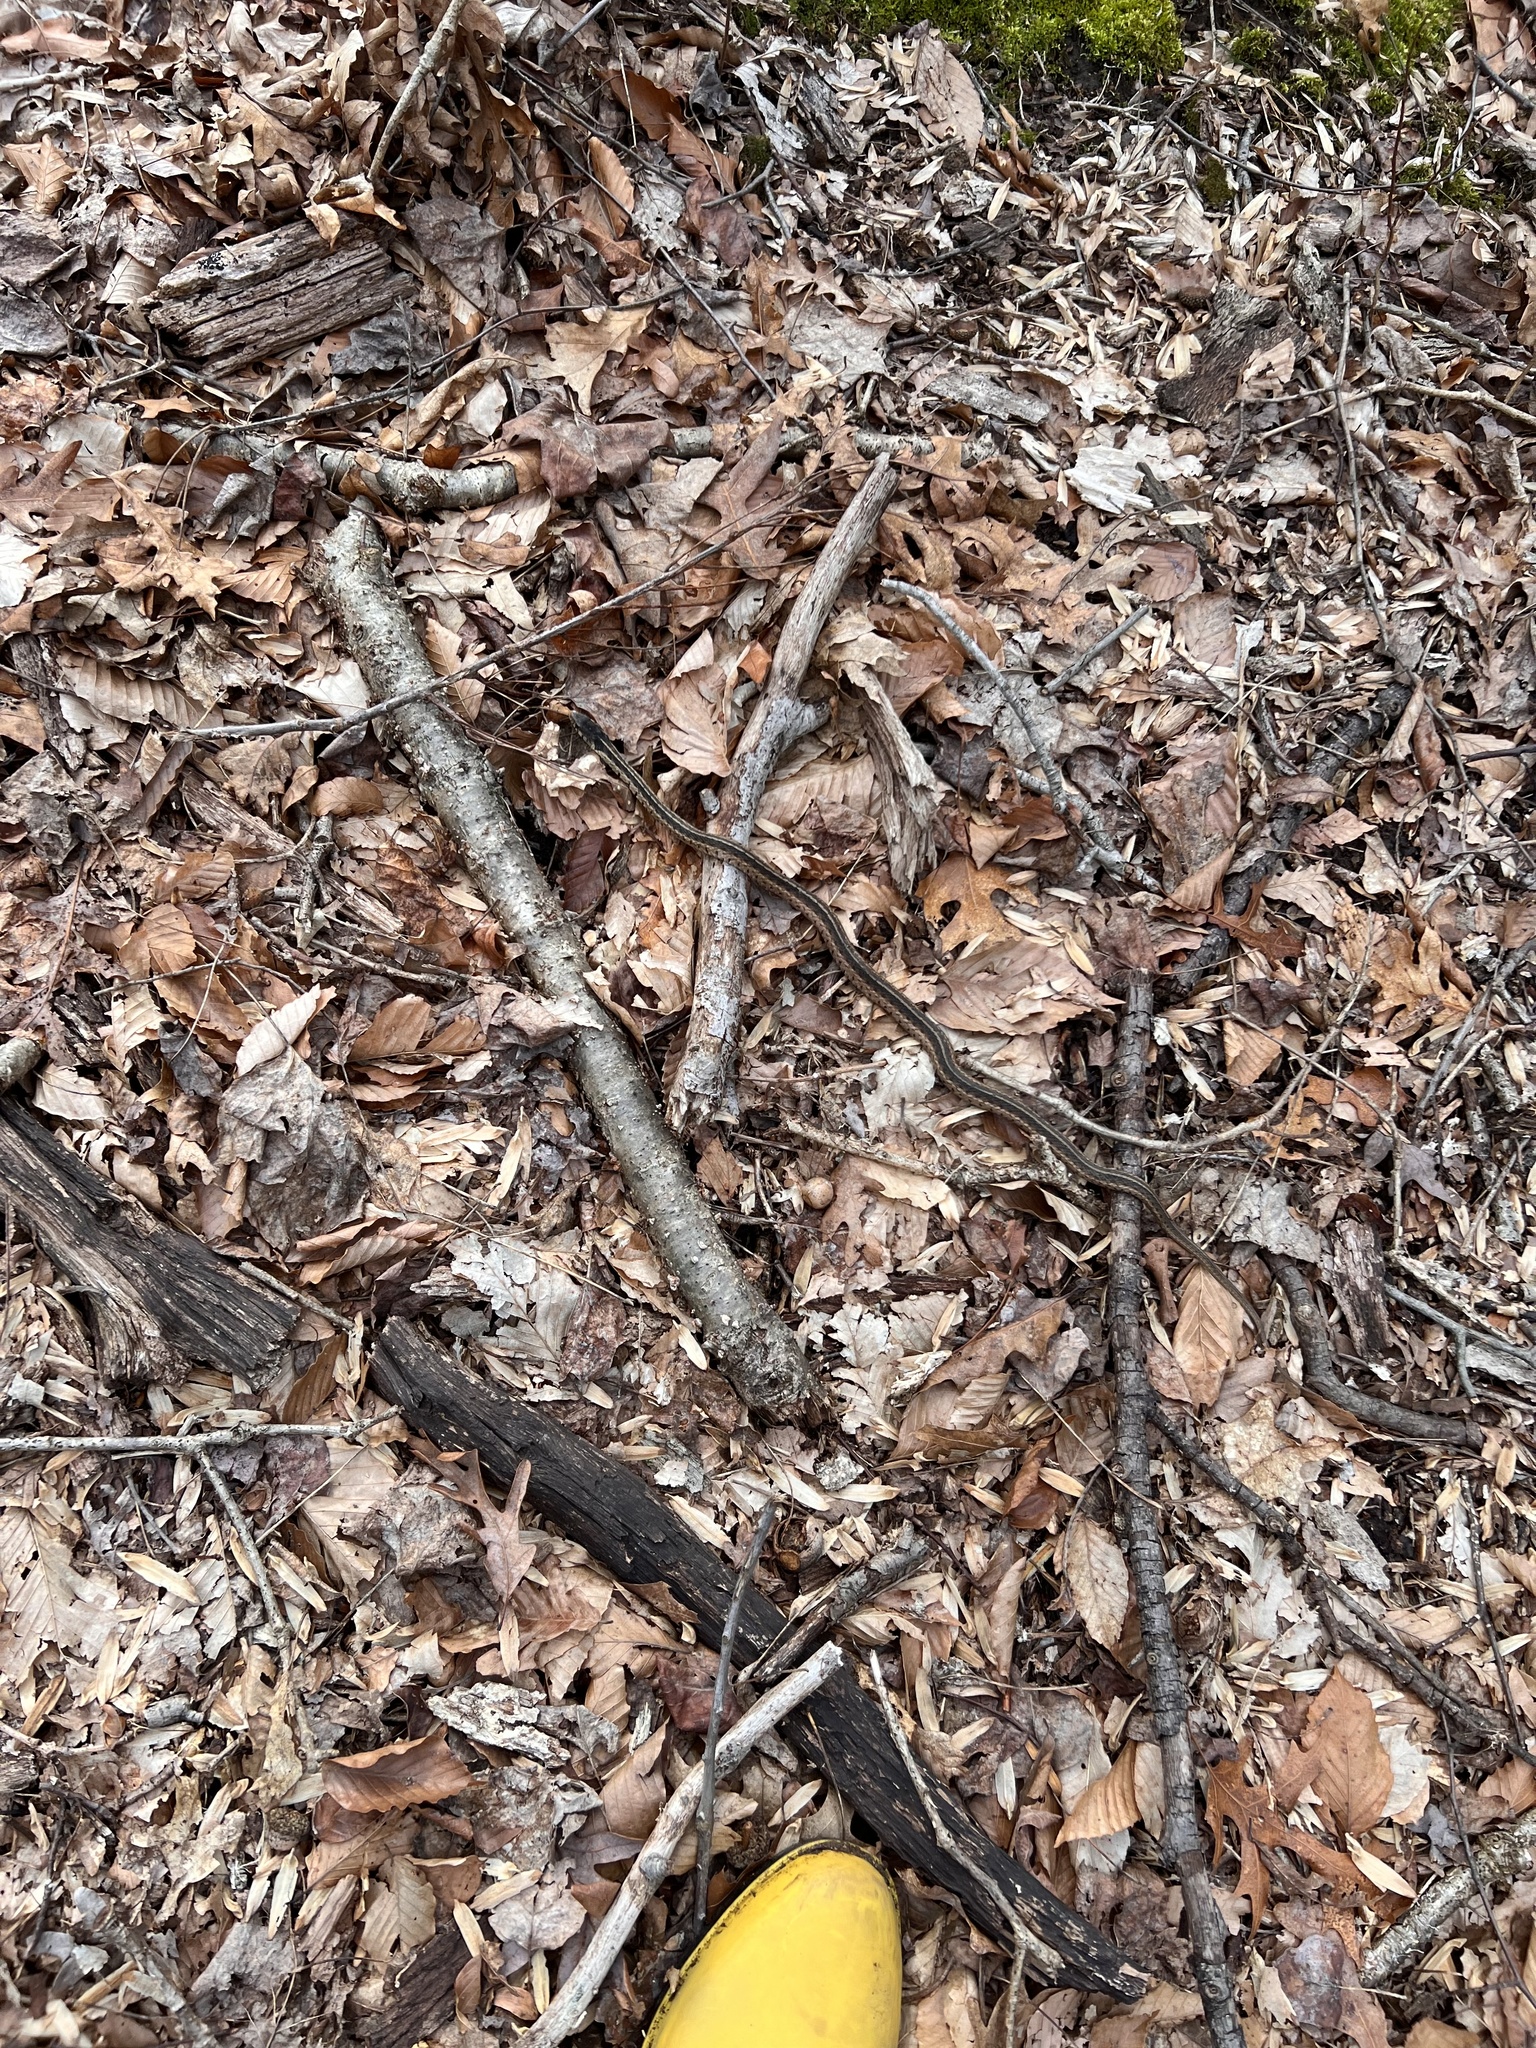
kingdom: Animalia
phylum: Chordata
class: Squamata
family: Colubridae
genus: Thamnophis
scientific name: Thamnophis sirtalis
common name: Common garter snake
